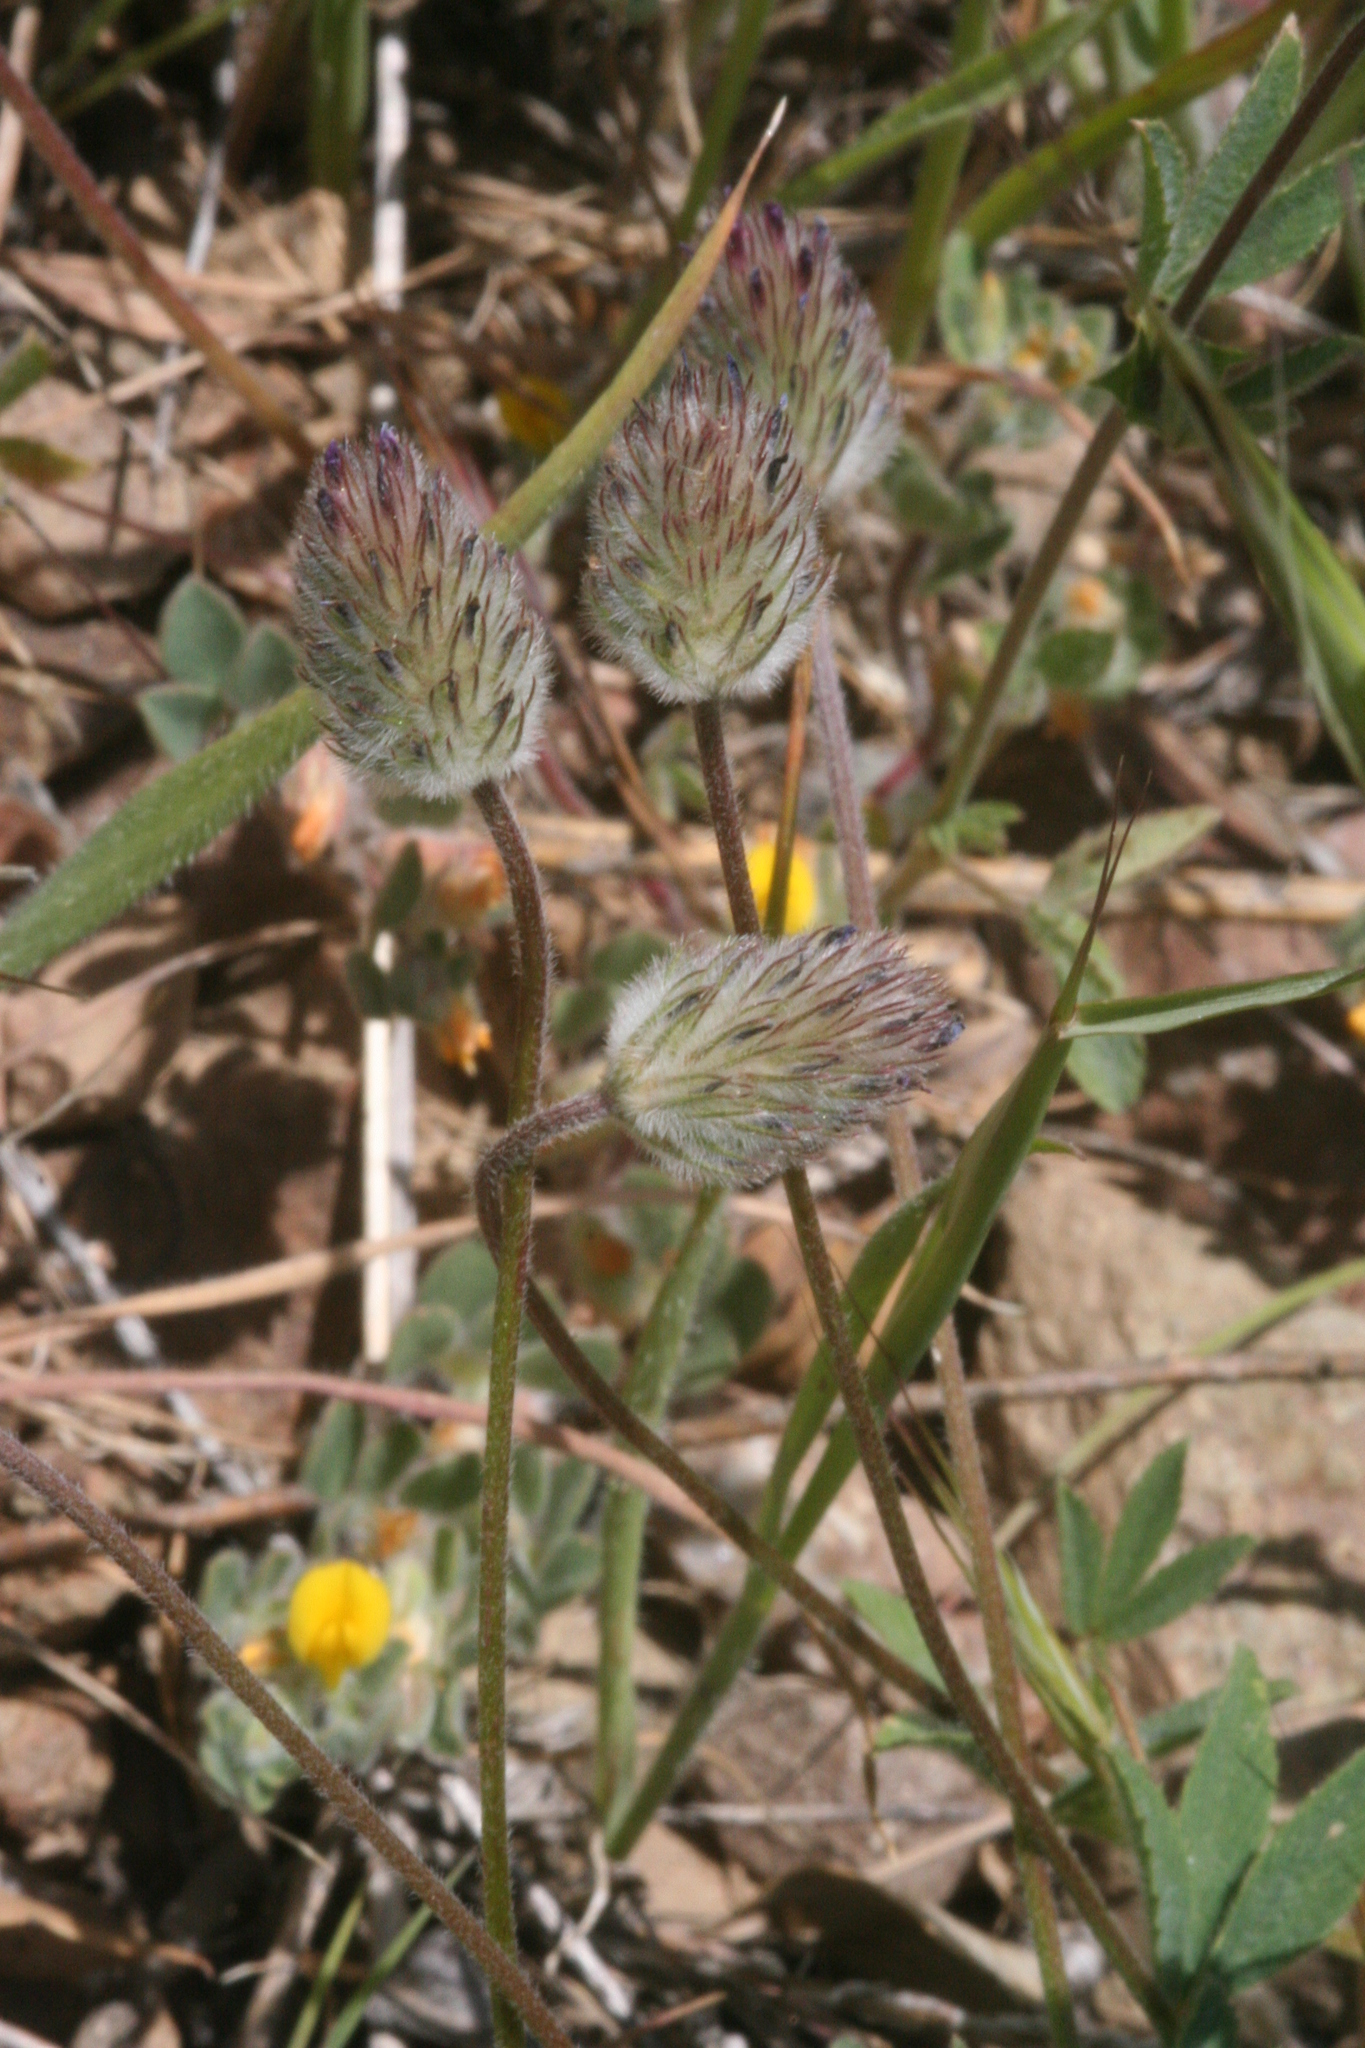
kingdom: Plantae
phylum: Tracheophyta
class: Magnoliopsida
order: Fabales
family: Fabaceae
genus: Trifolium
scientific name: Trifolium albopurpureum
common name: Rancheria clover
